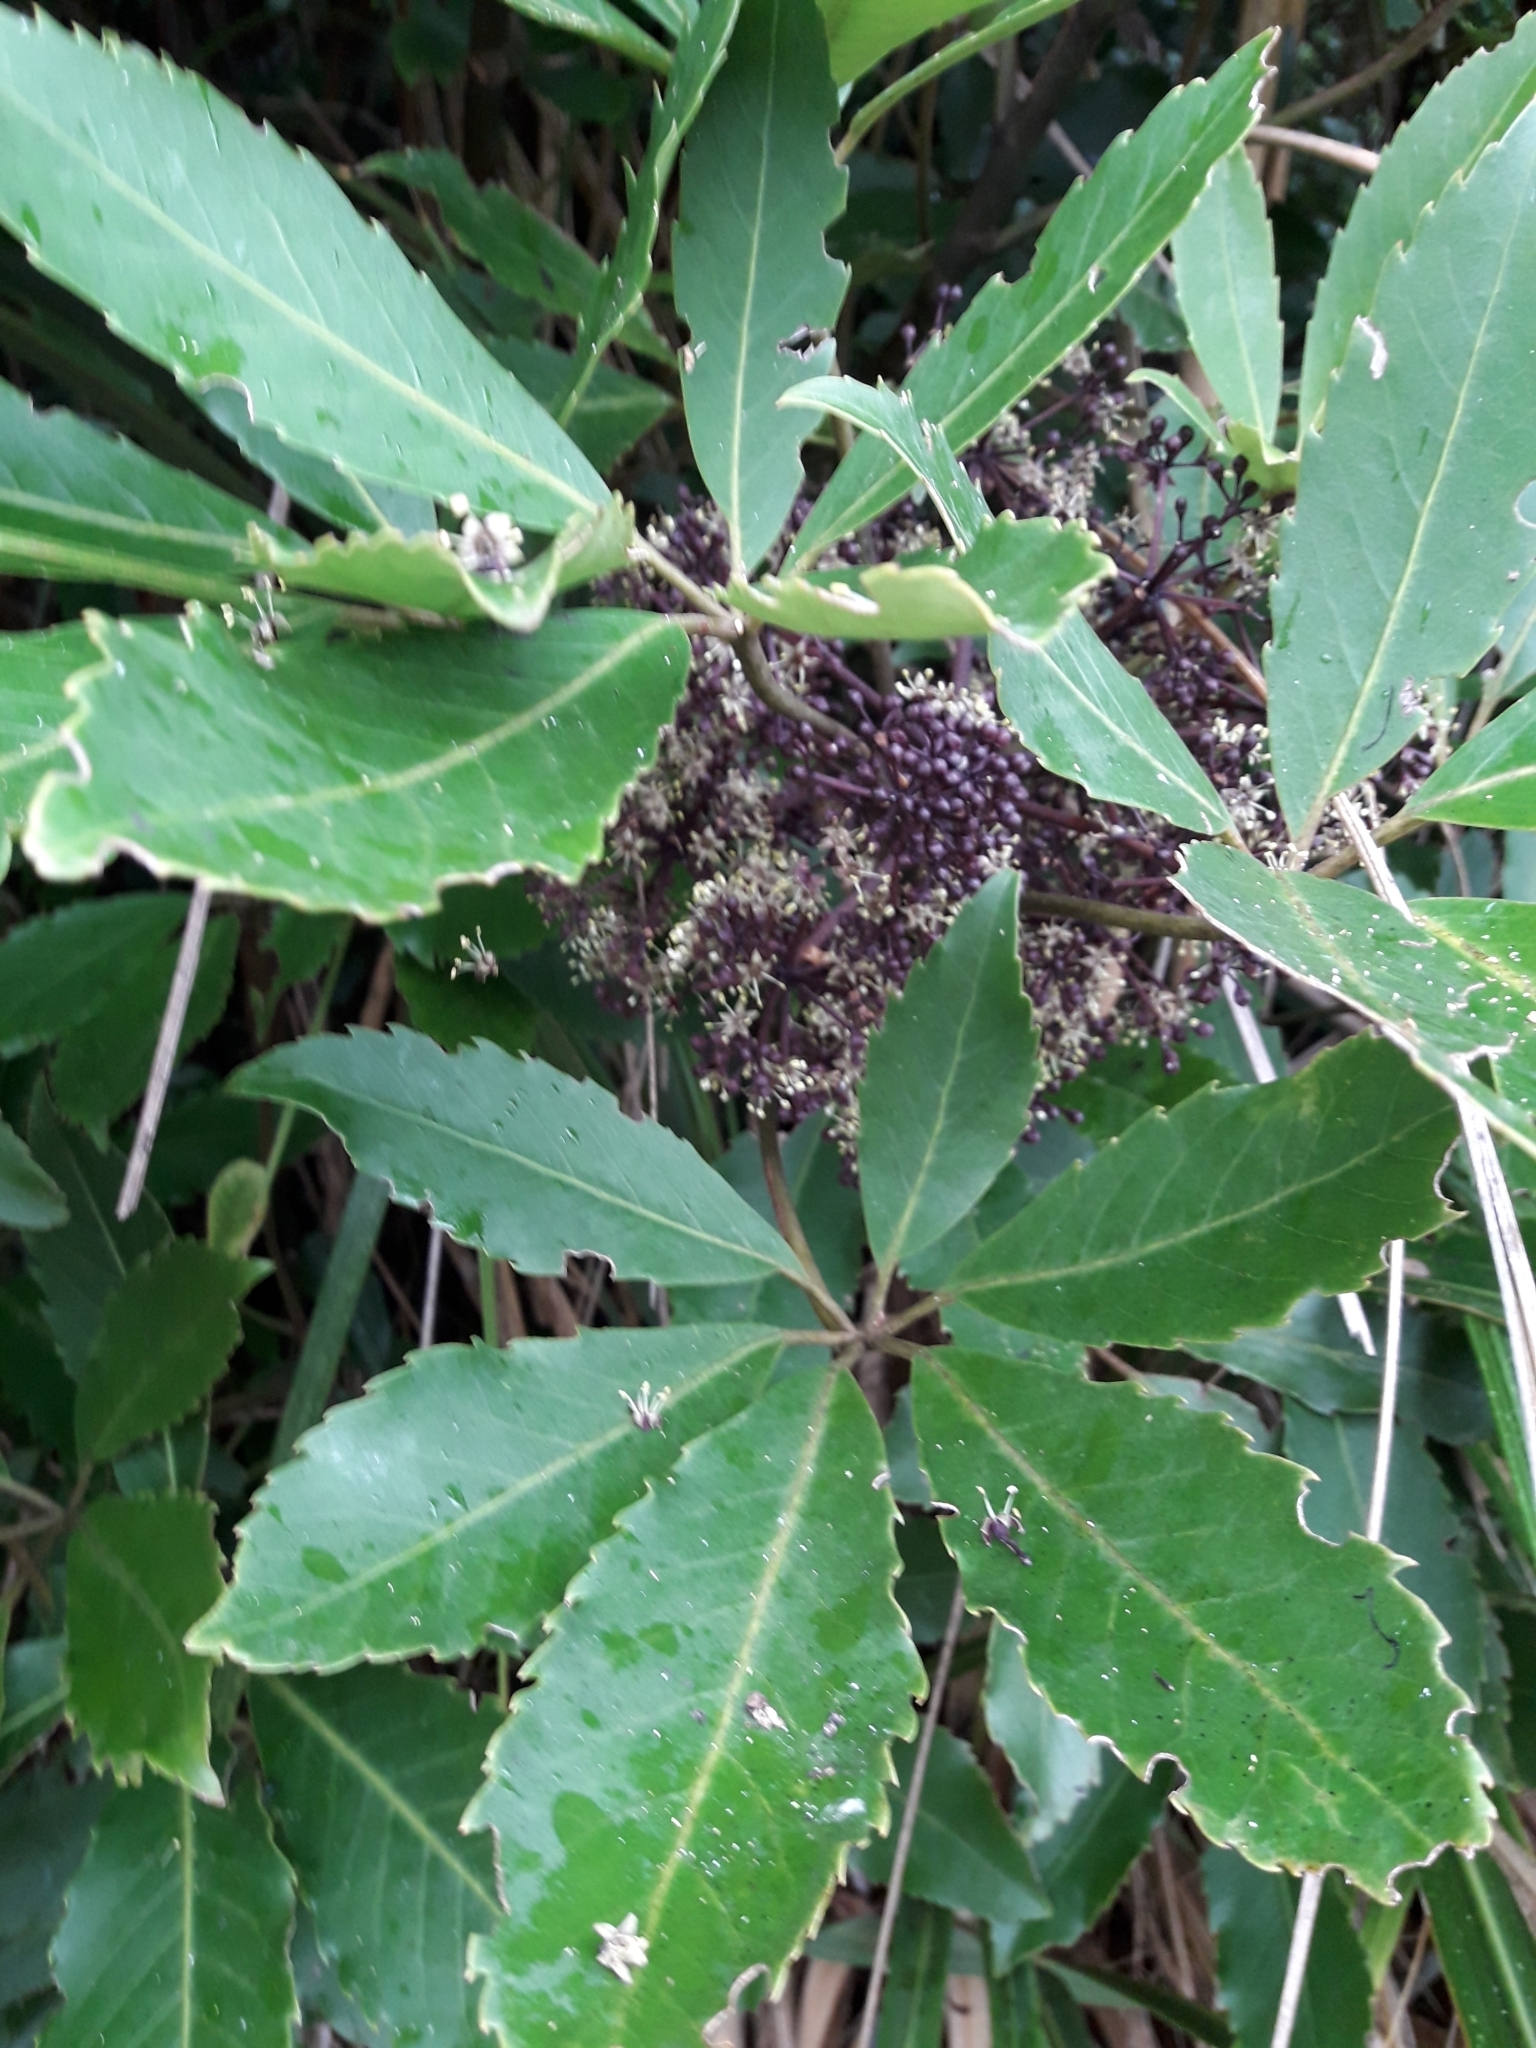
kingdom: Plantae
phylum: Tracheophyta
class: Magnoliopsida
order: Apiales
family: Araliaceae
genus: Neopanax
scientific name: Neopanax arboreus
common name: Five-fingers
